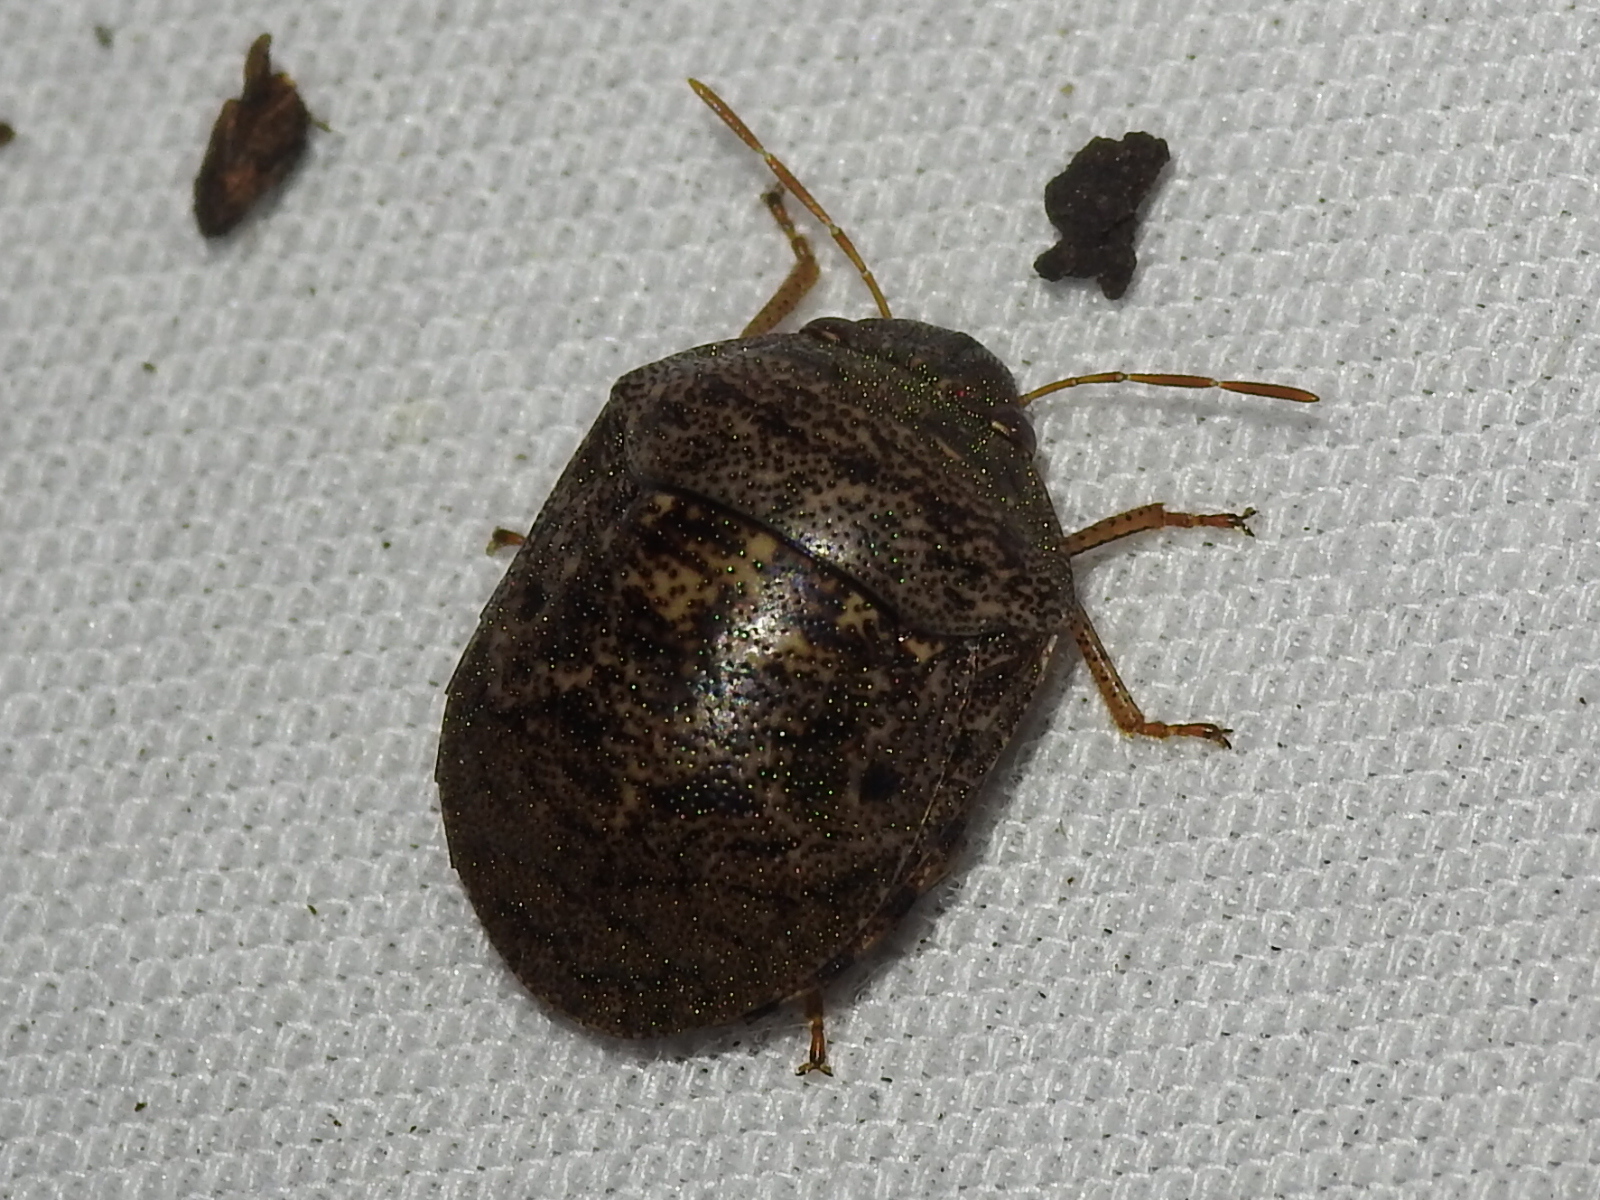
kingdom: Animalia
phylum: Arthropoda
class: Insecta
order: Hemiptera
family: Scutelleridae
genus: Diolcus
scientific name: Diolcus chrysorrhoeus
